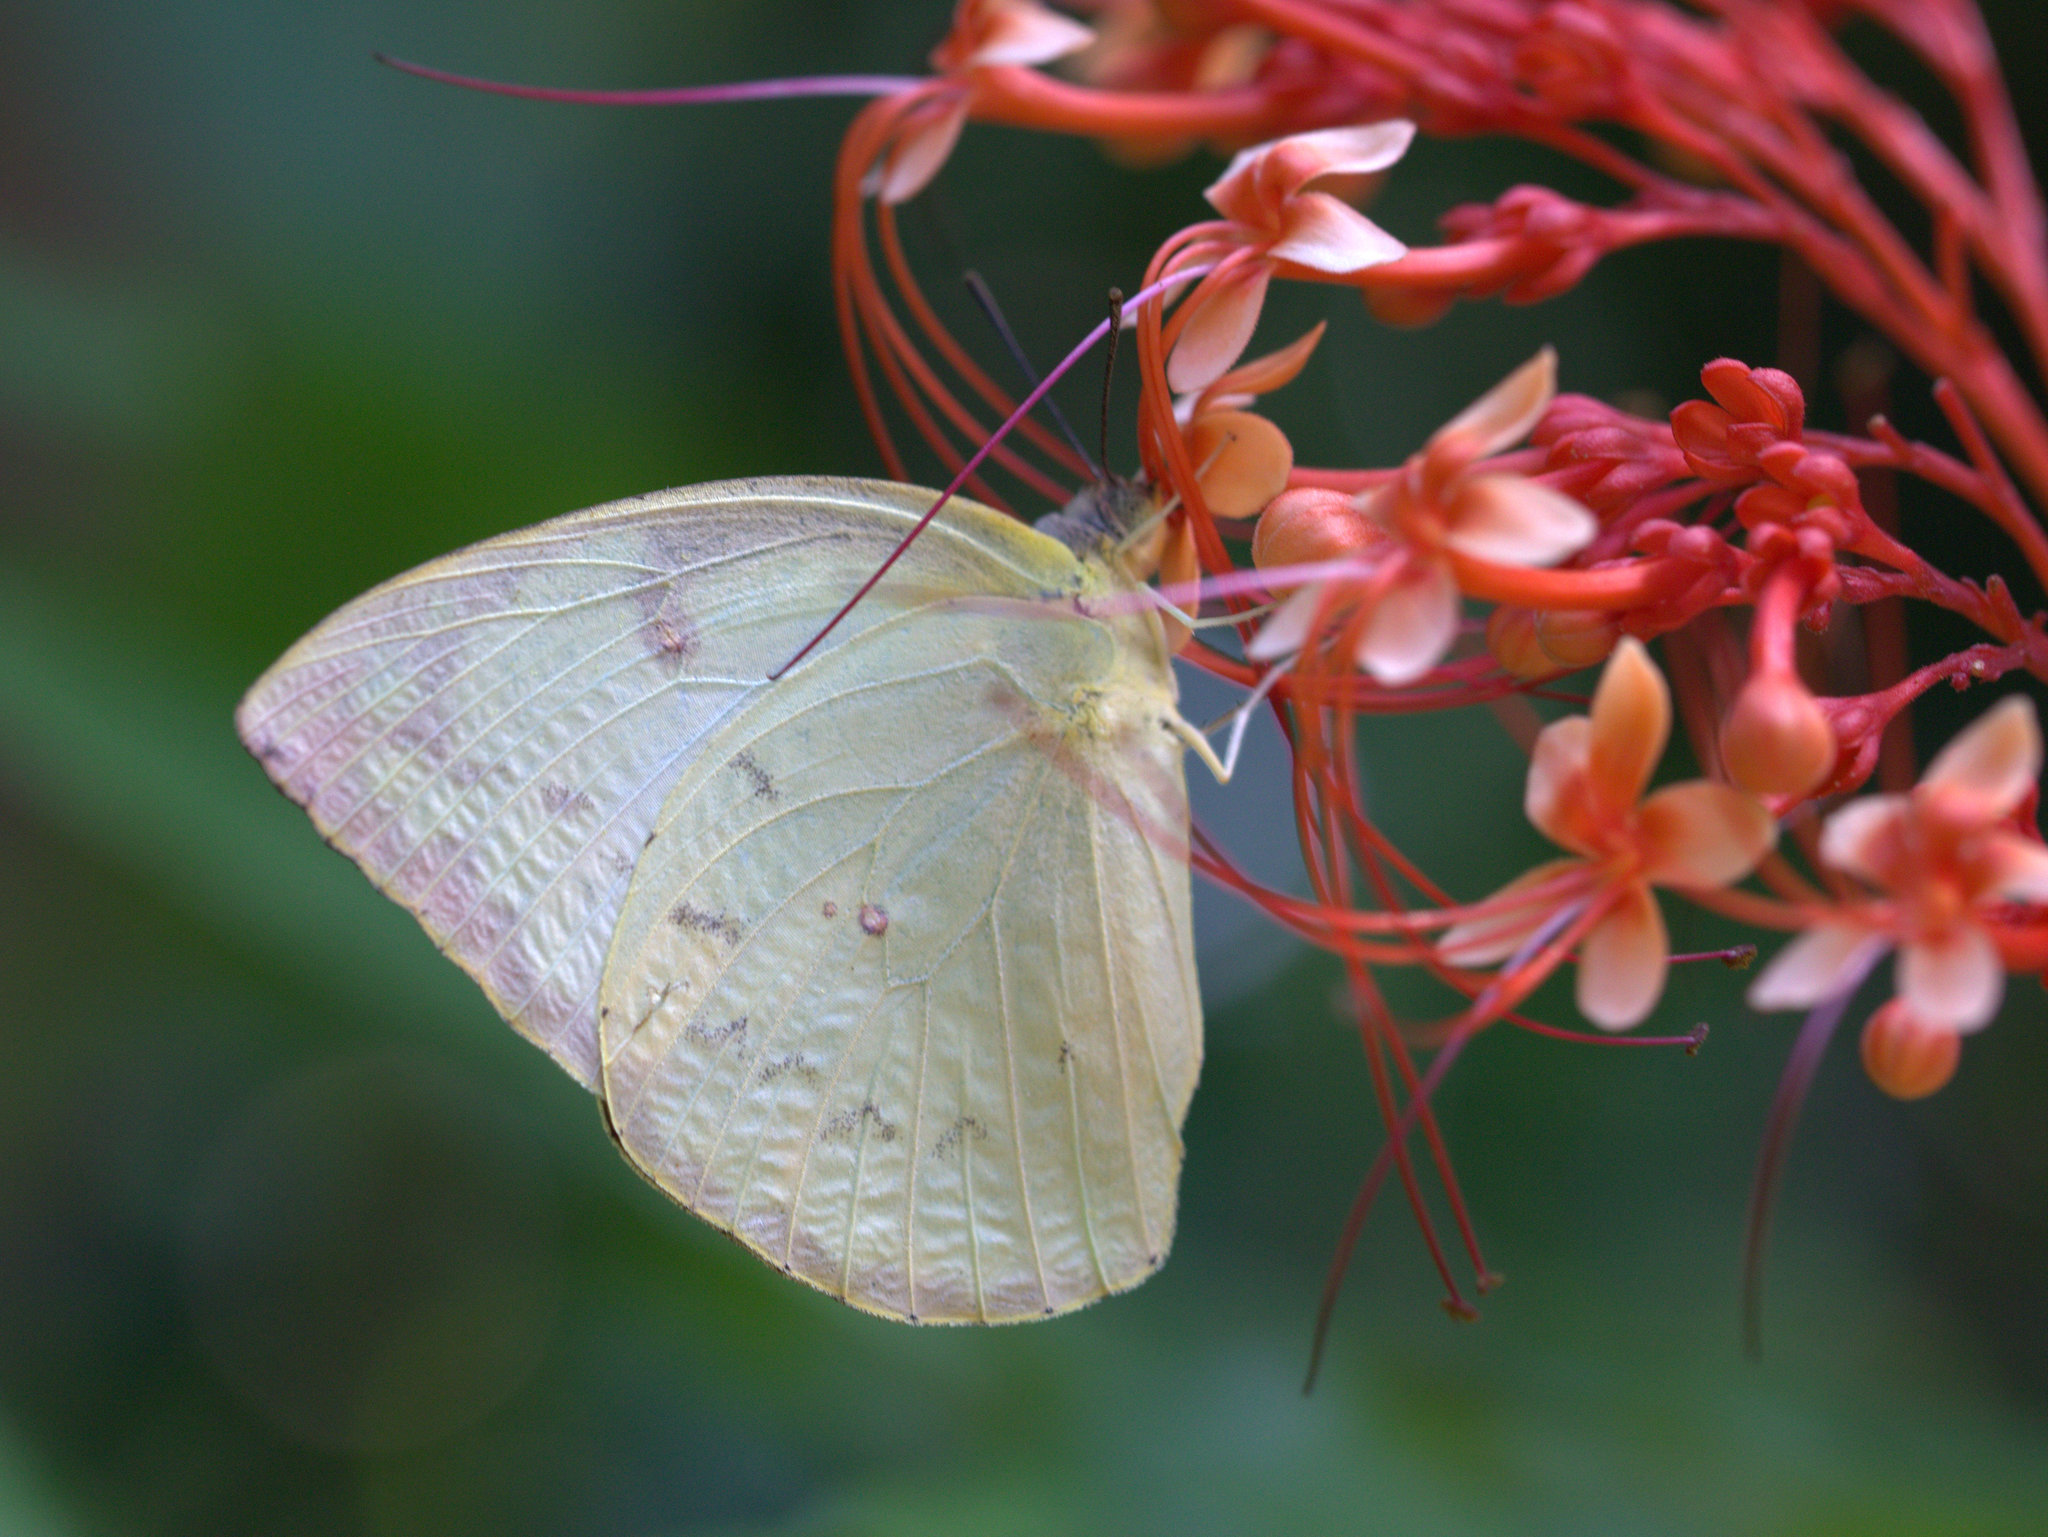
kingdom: Animalia
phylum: Arthropoda
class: Insecta
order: Lepidoptera
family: Pieridae
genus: Catopsilia
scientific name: Catopsilia pomona
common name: Common emigrant
